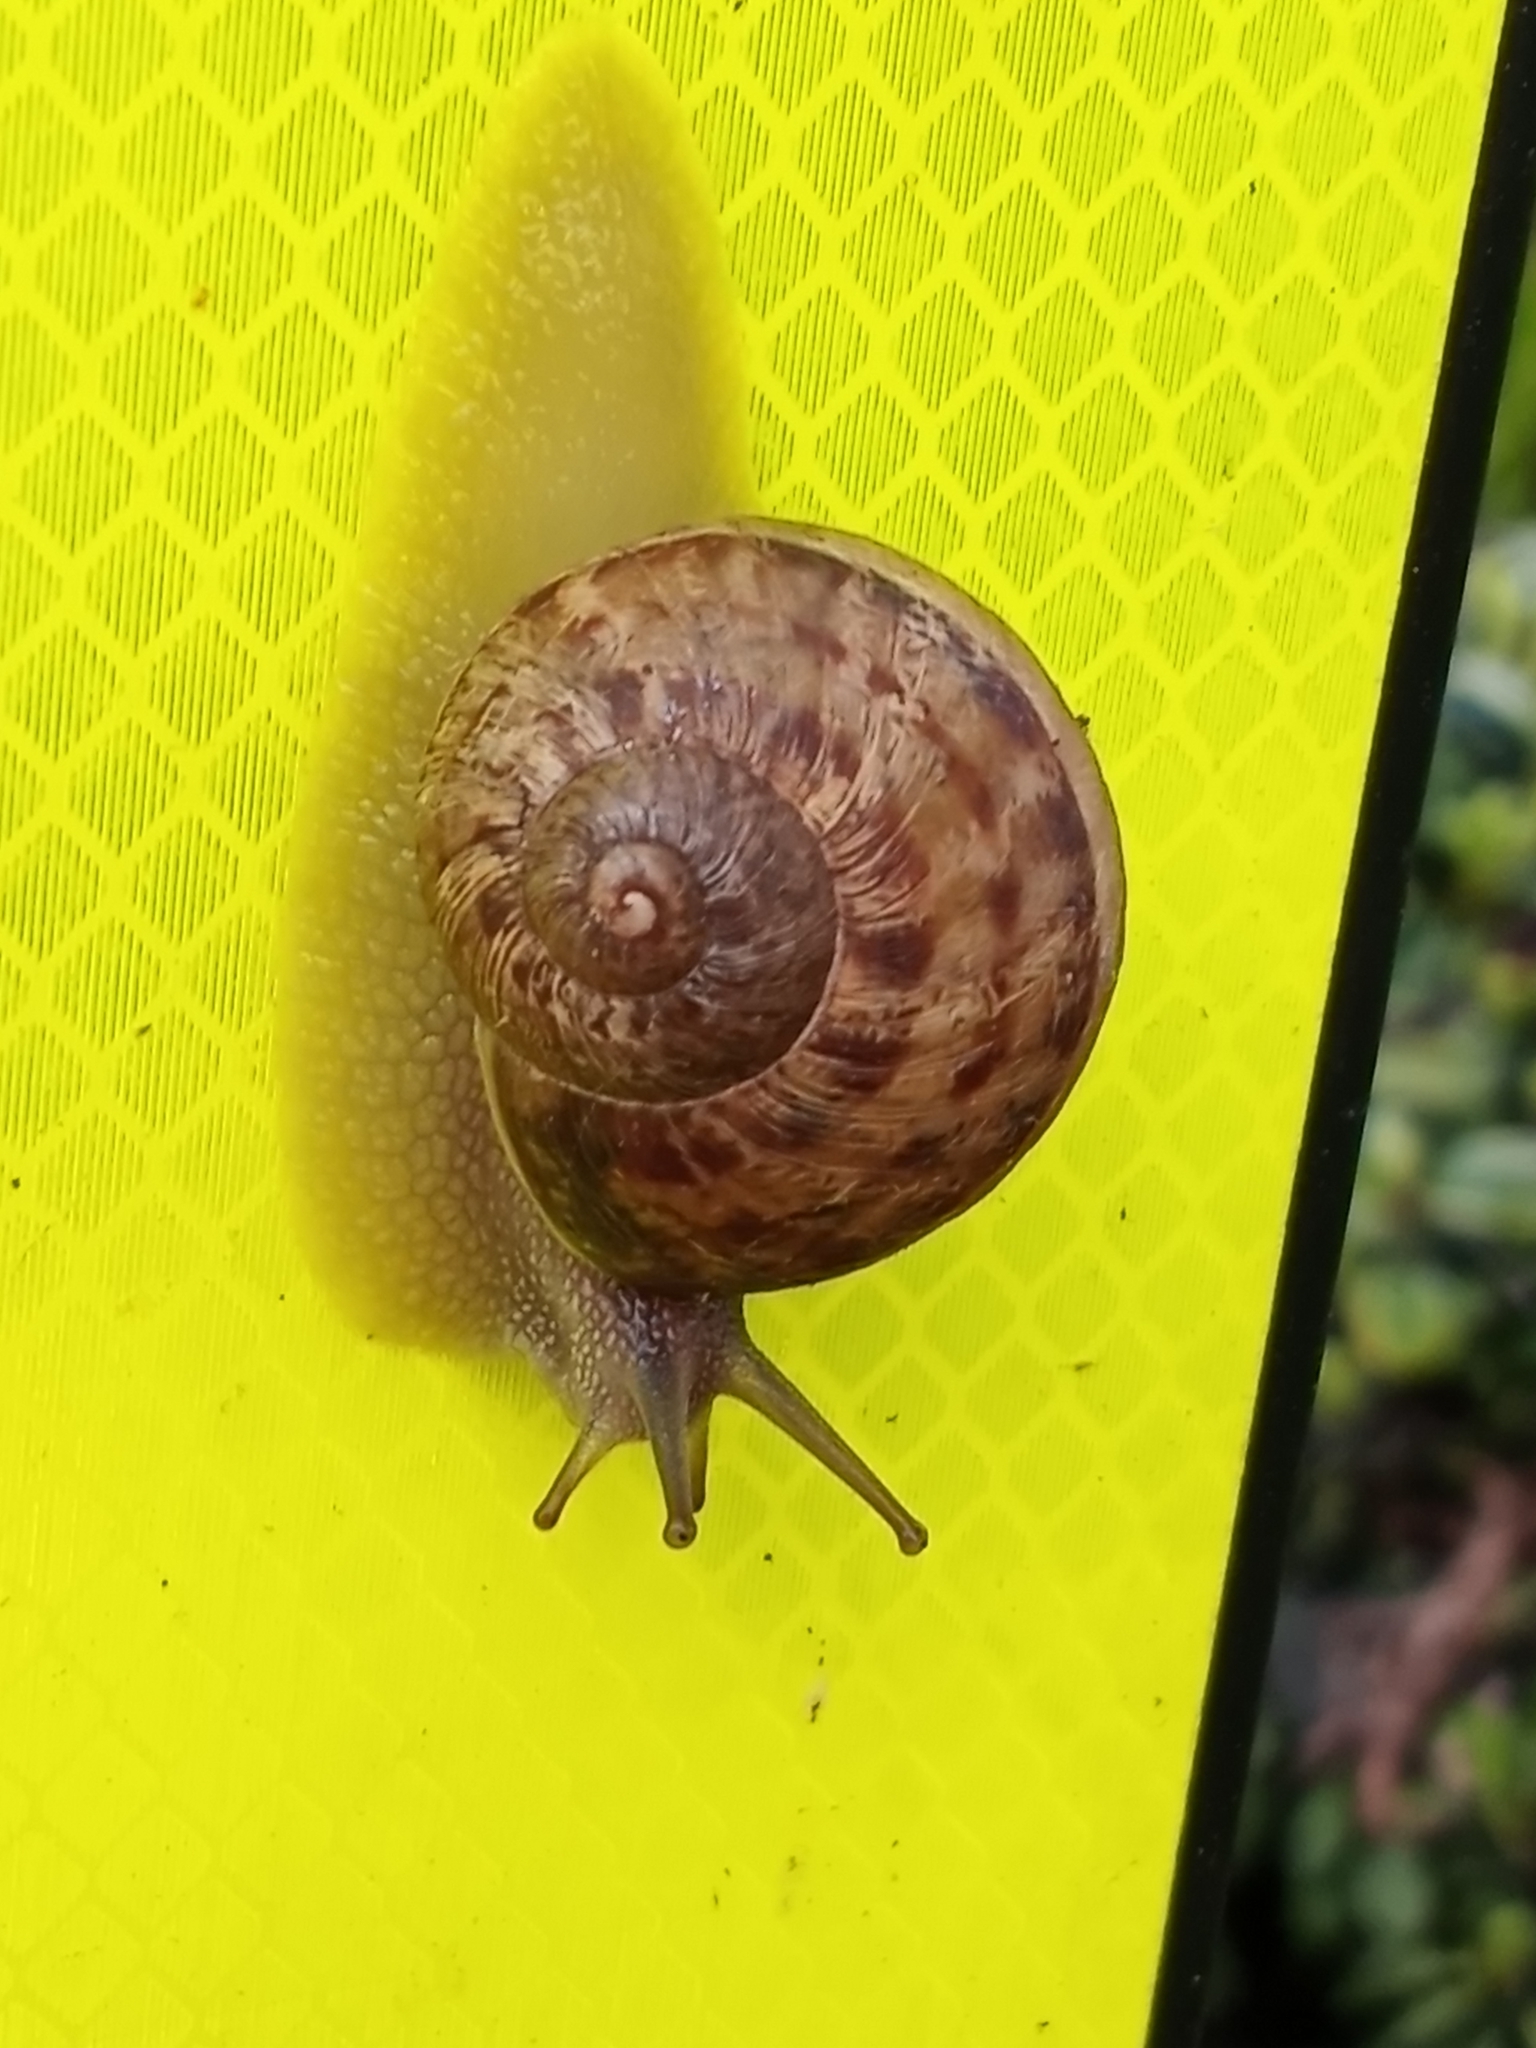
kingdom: Animalia
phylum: Mollusca
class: Gastropoda
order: Stylommatophora
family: Helicidae
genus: Cornu
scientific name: Cornu aspersum
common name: Brown garden snail
